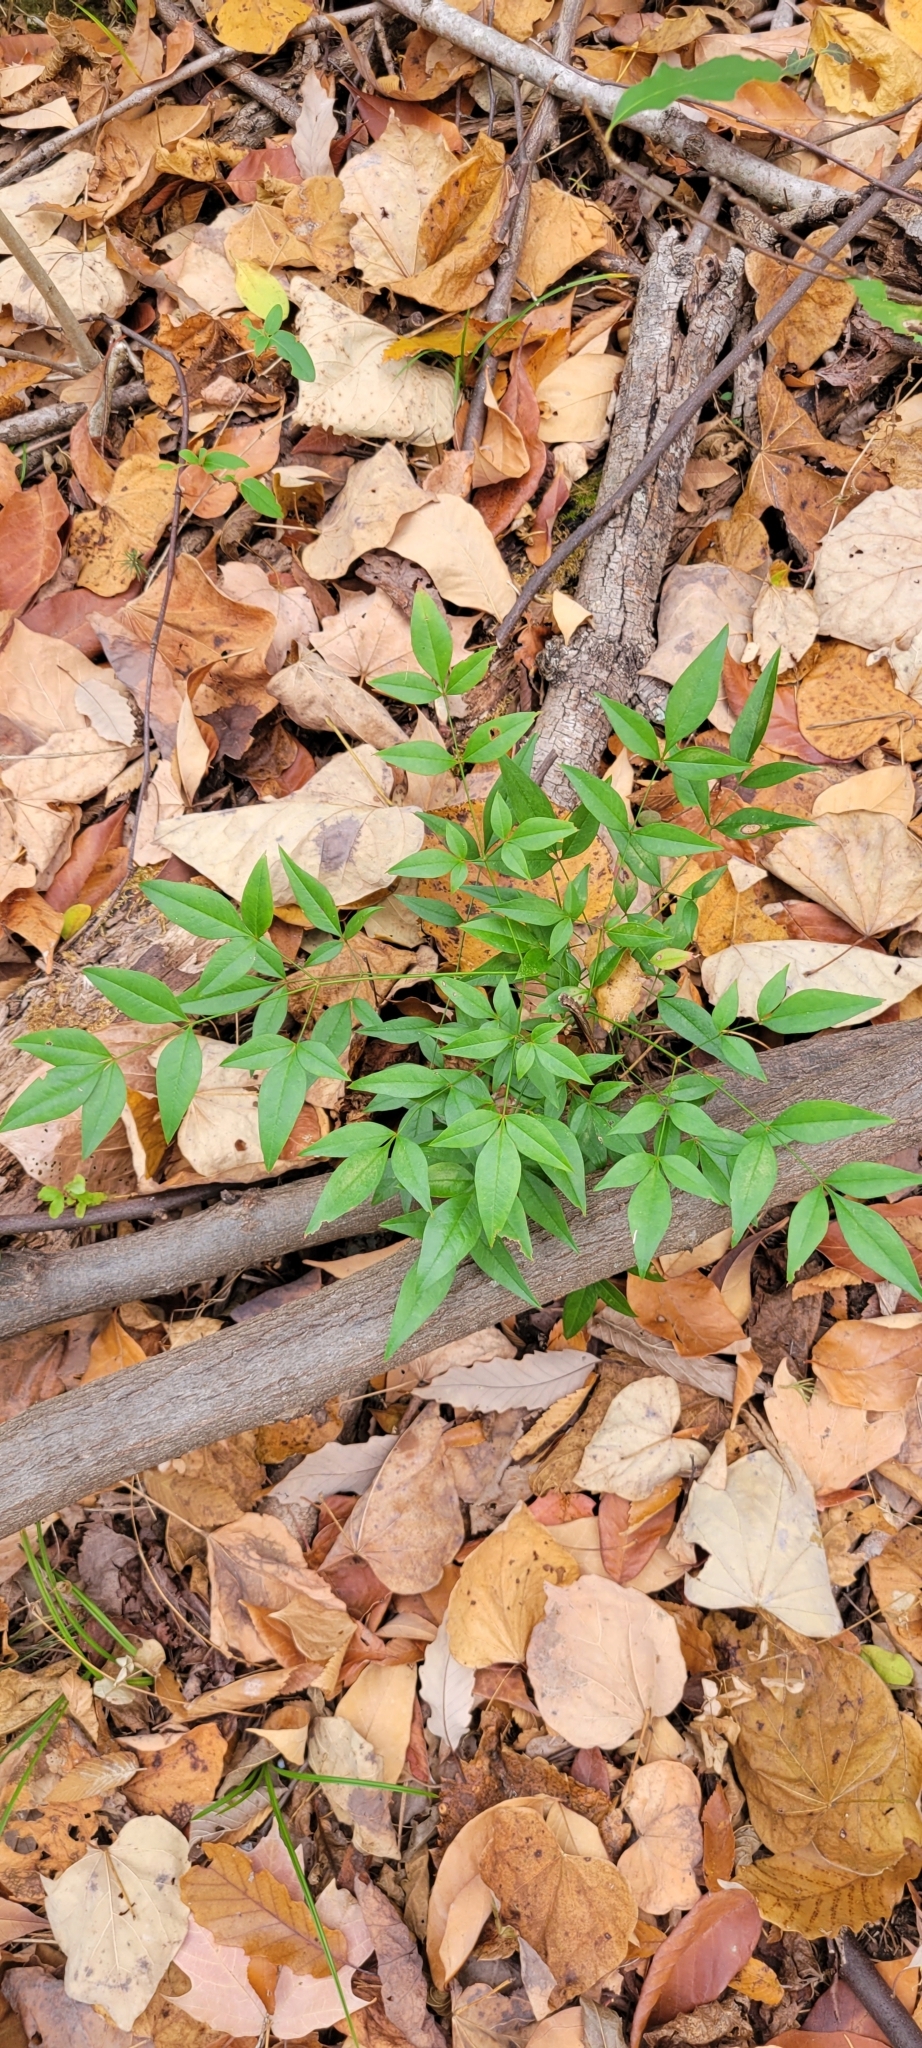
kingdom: Plantae
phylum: Tracheophyta
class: Magnoliopsida
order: Ranunculales
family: Berberidaceae
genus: Nandina
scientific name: Nandina domestica
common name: Sacred bamboo
